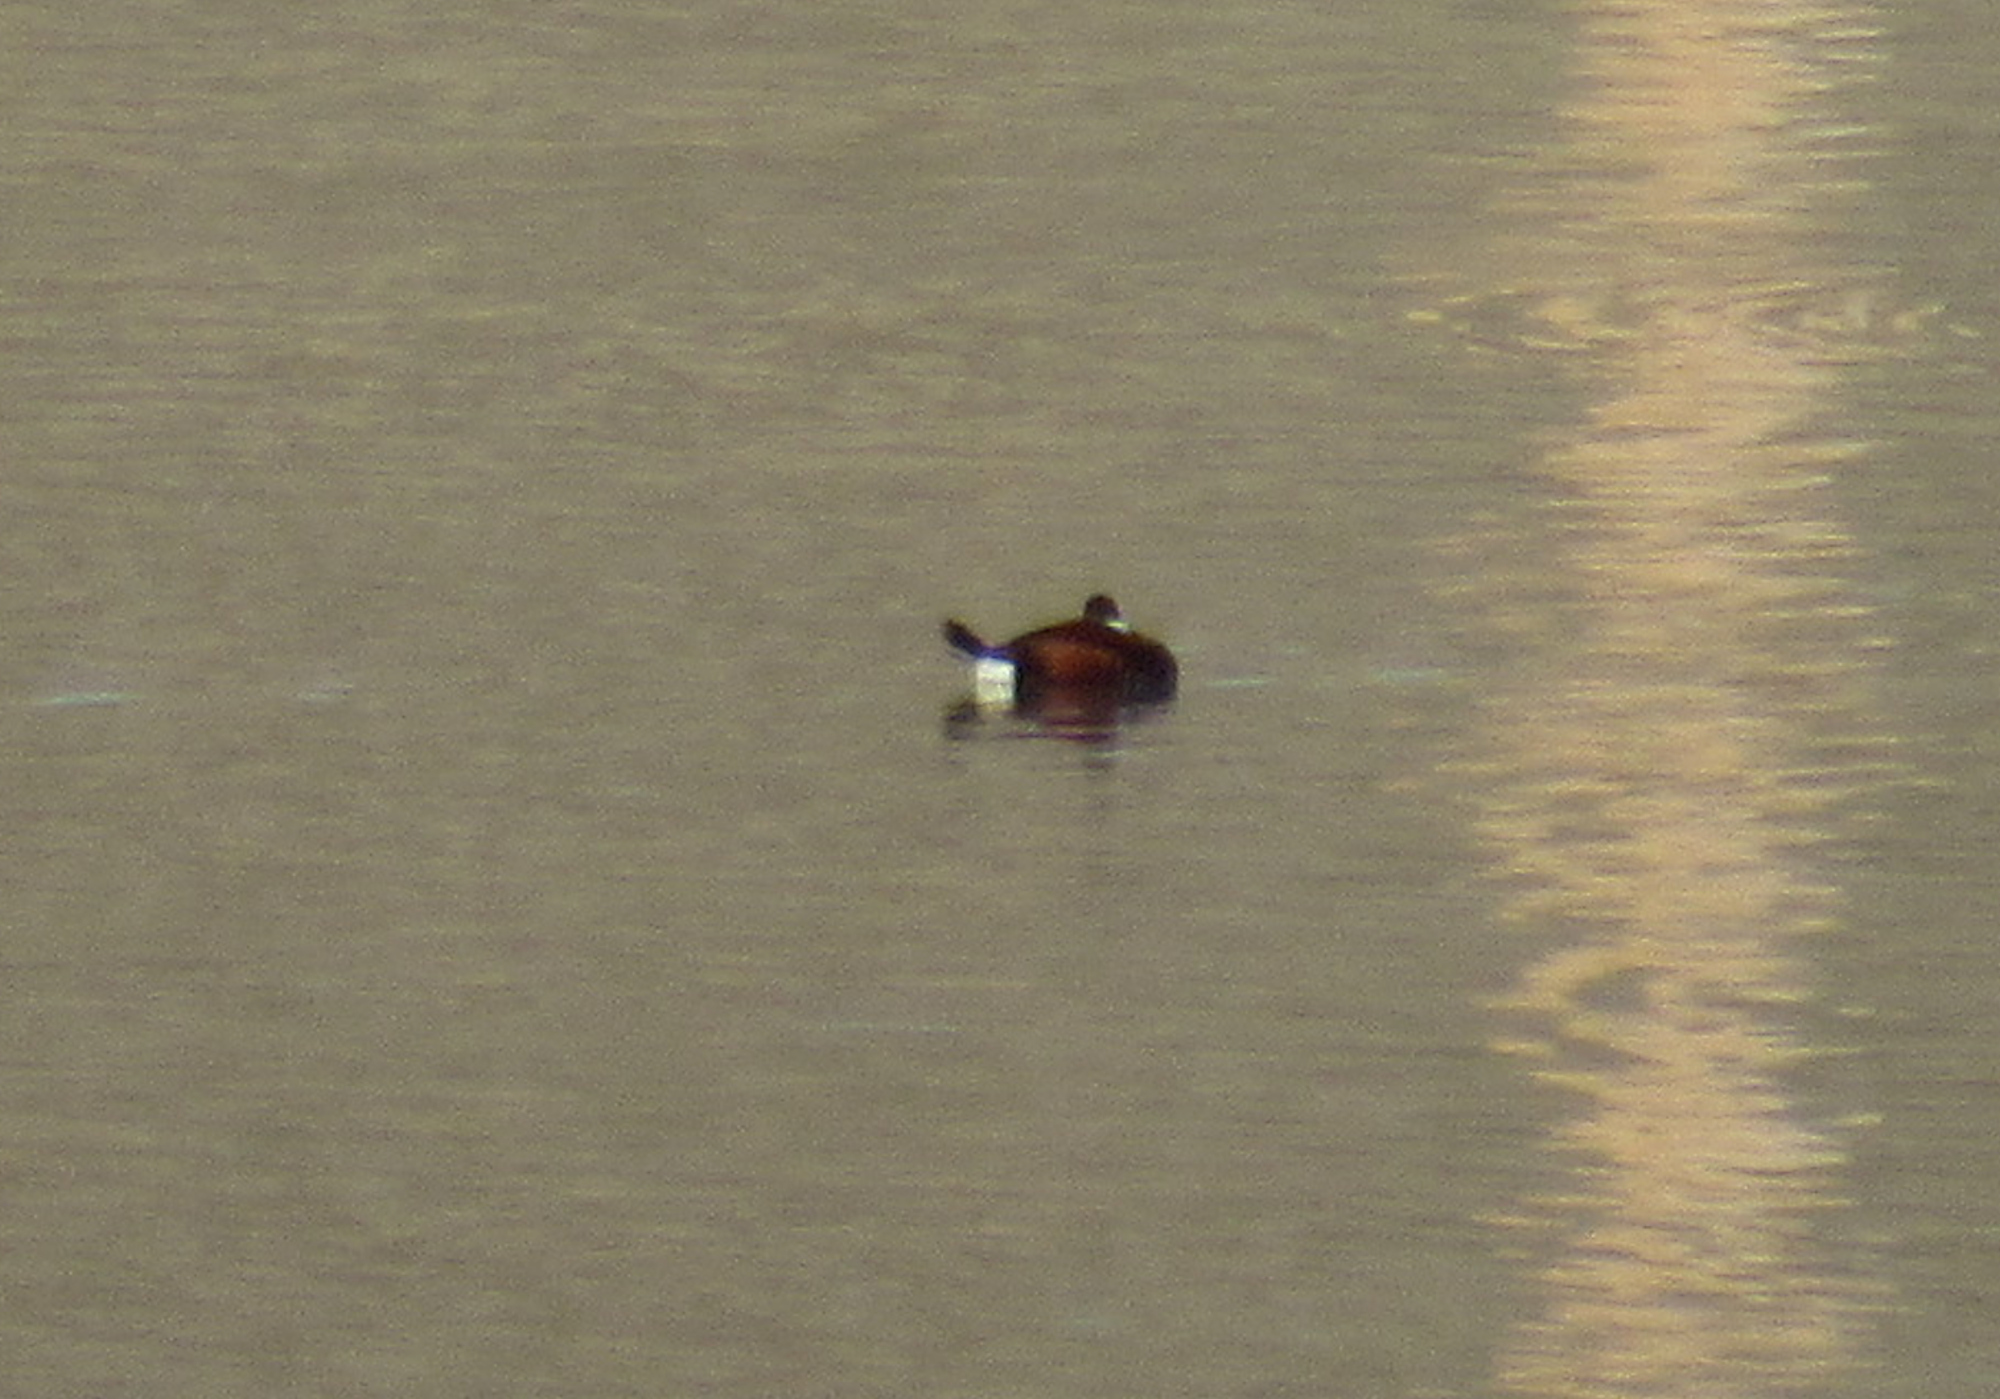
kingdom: Animalia
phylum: Chordata
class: Aves
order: Anseriformes
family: Anatidae
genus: Oxyura
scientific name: Oxyura jamaicensis
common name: Ruddy duck
